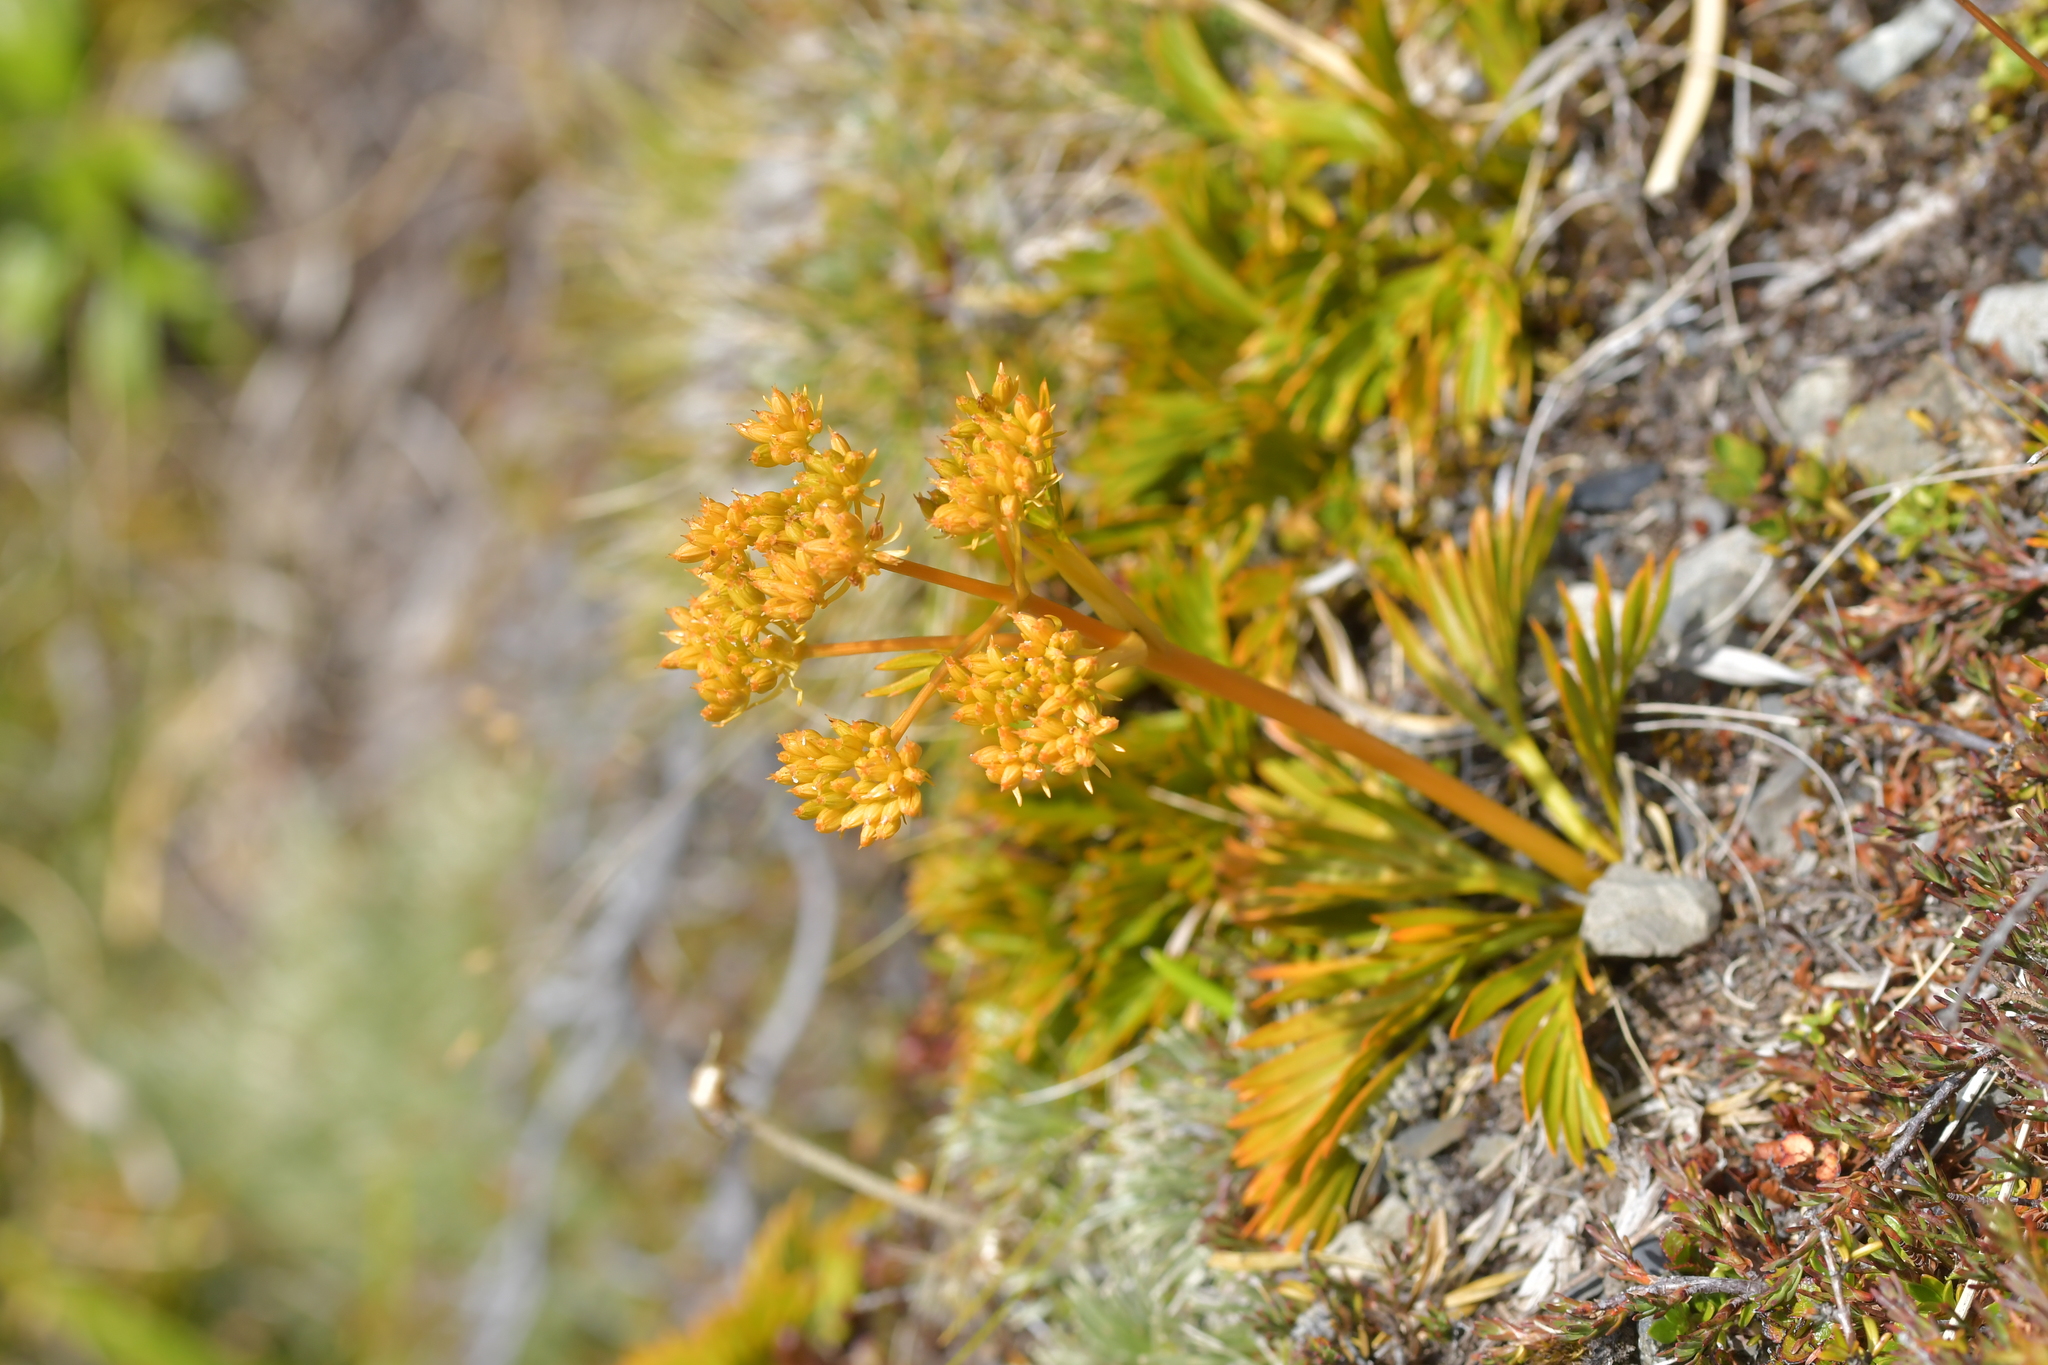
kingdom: Plantae
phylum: Tracheophyta
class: Magnoliopsida
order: Apiales
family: Apiaceae
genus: Aciphylla
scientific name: Aciphylla similis
